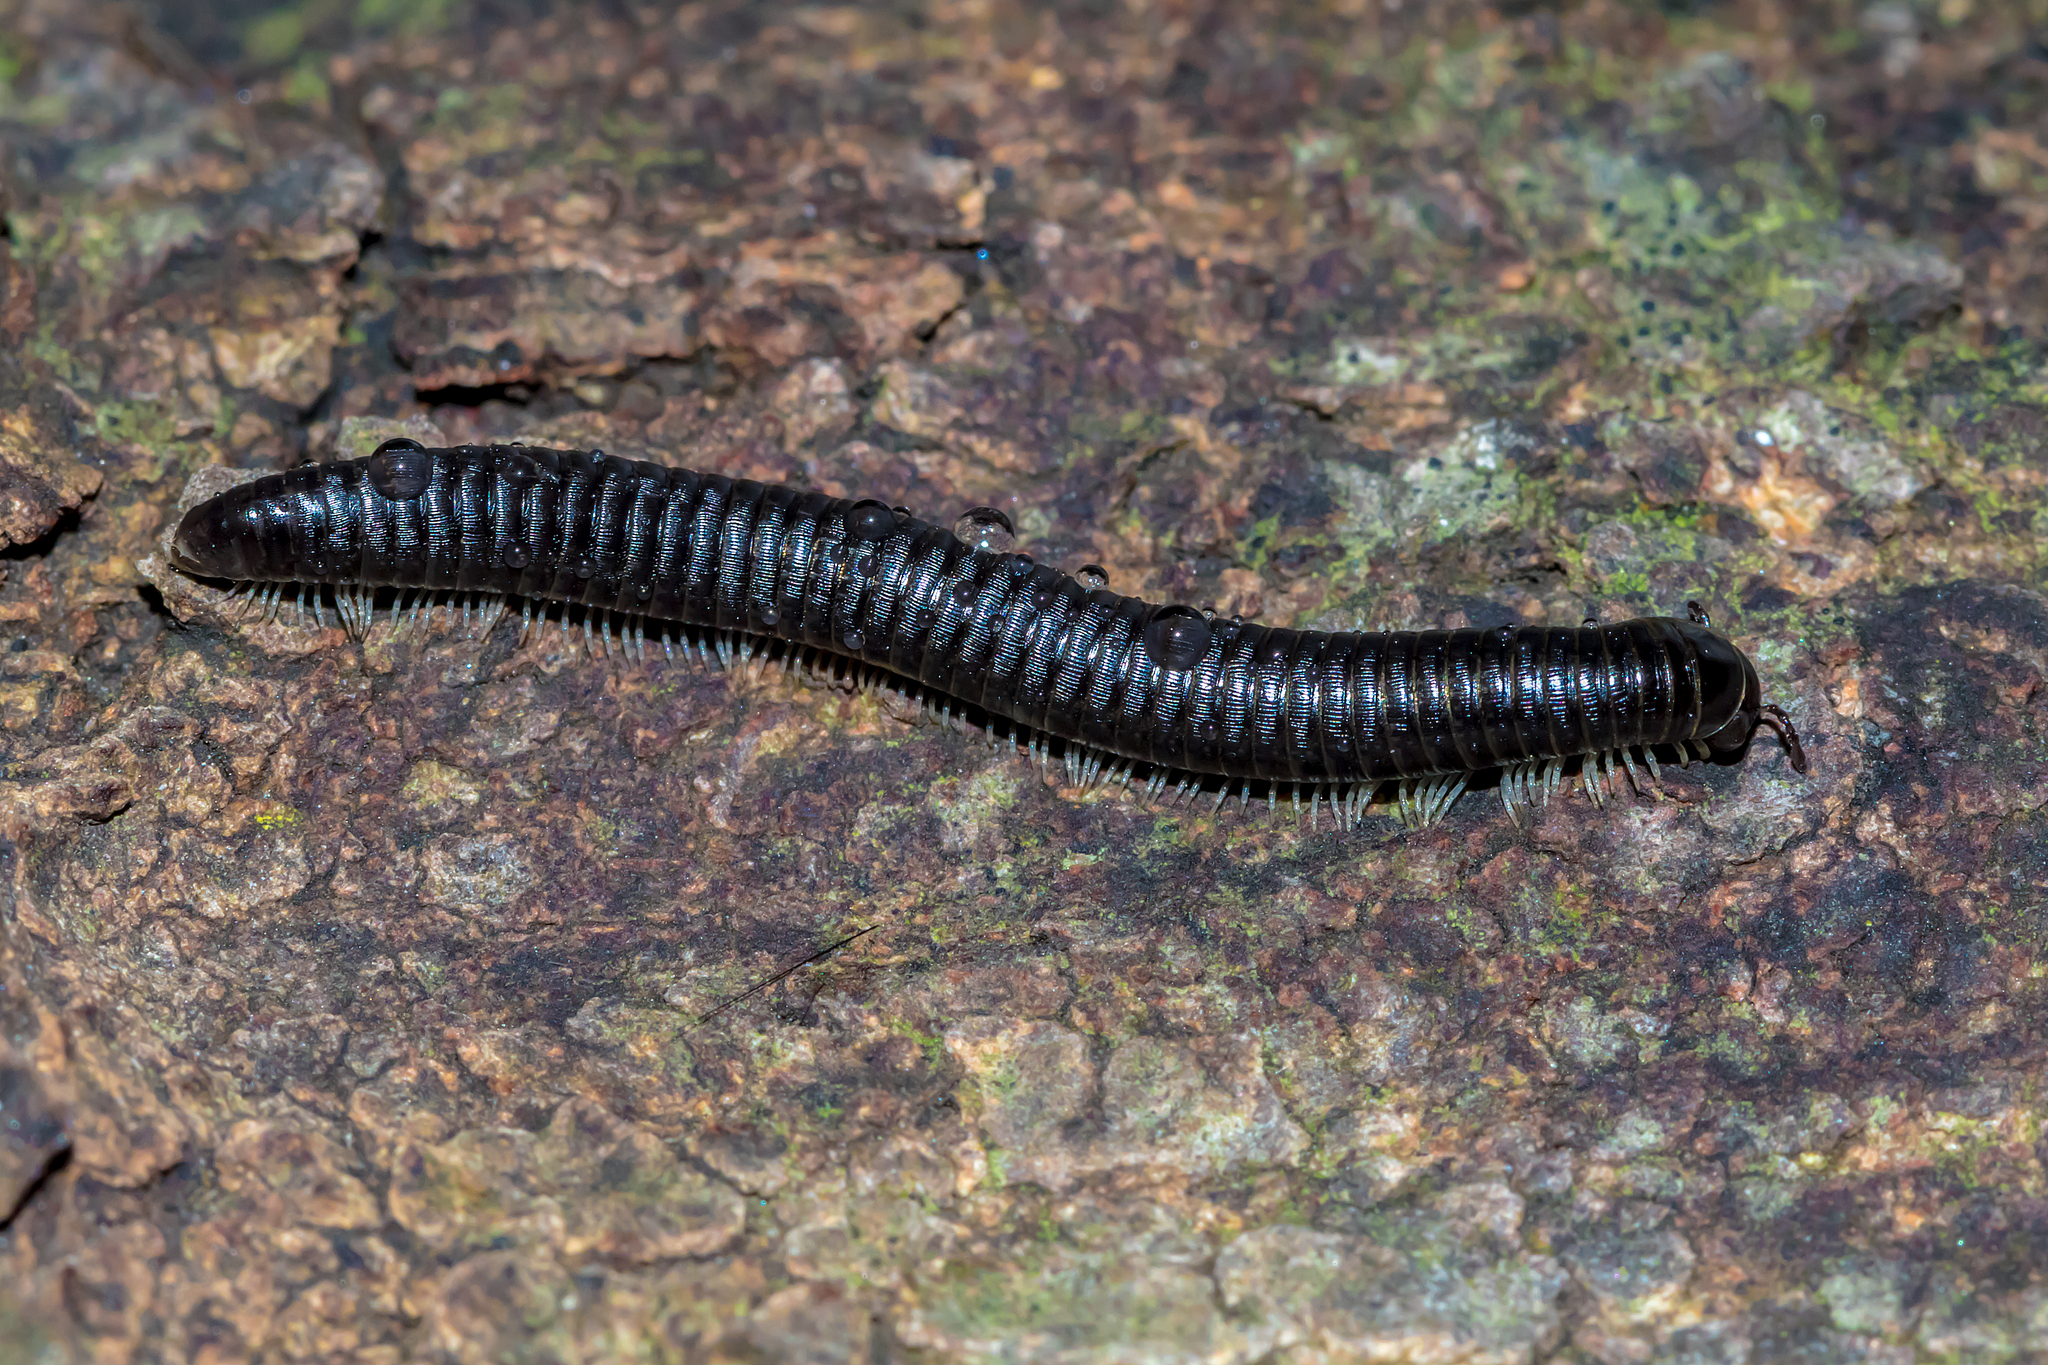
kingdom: Animalia
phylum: Arthropoda
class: Diplopoda
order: Julida
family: Julidae
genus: Ommatoiulus
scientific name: Ommatoiulus moreleti
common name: Portuguese millipede
